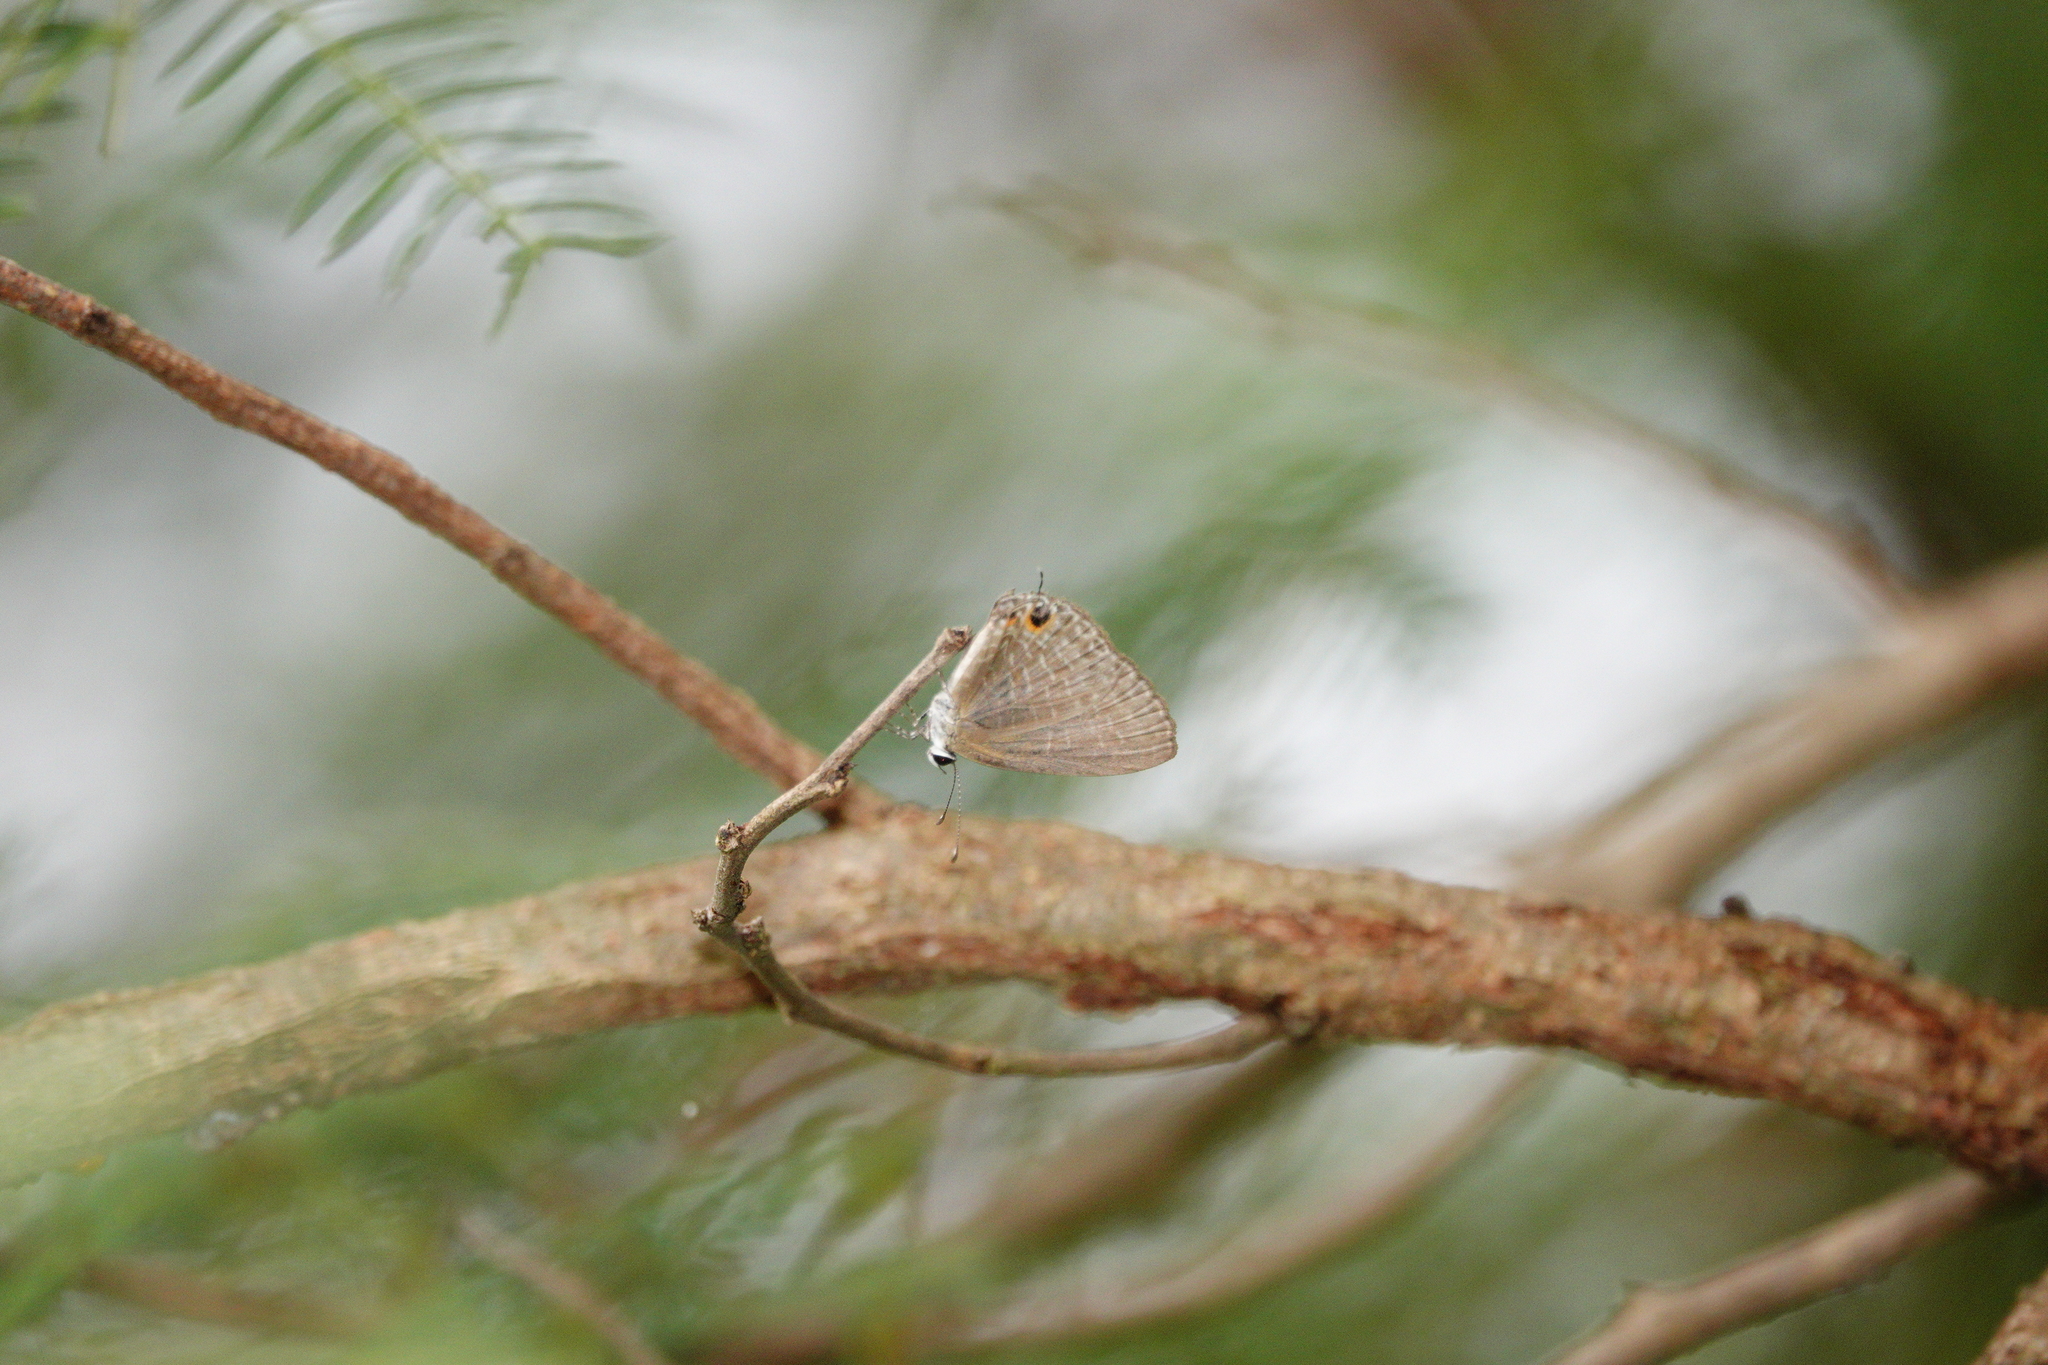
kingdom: Animalia
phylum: Arthropoda
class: Insecta
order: Lepidoptera
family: Lycaenidae
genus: Jamides
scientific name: Jamides bochus
